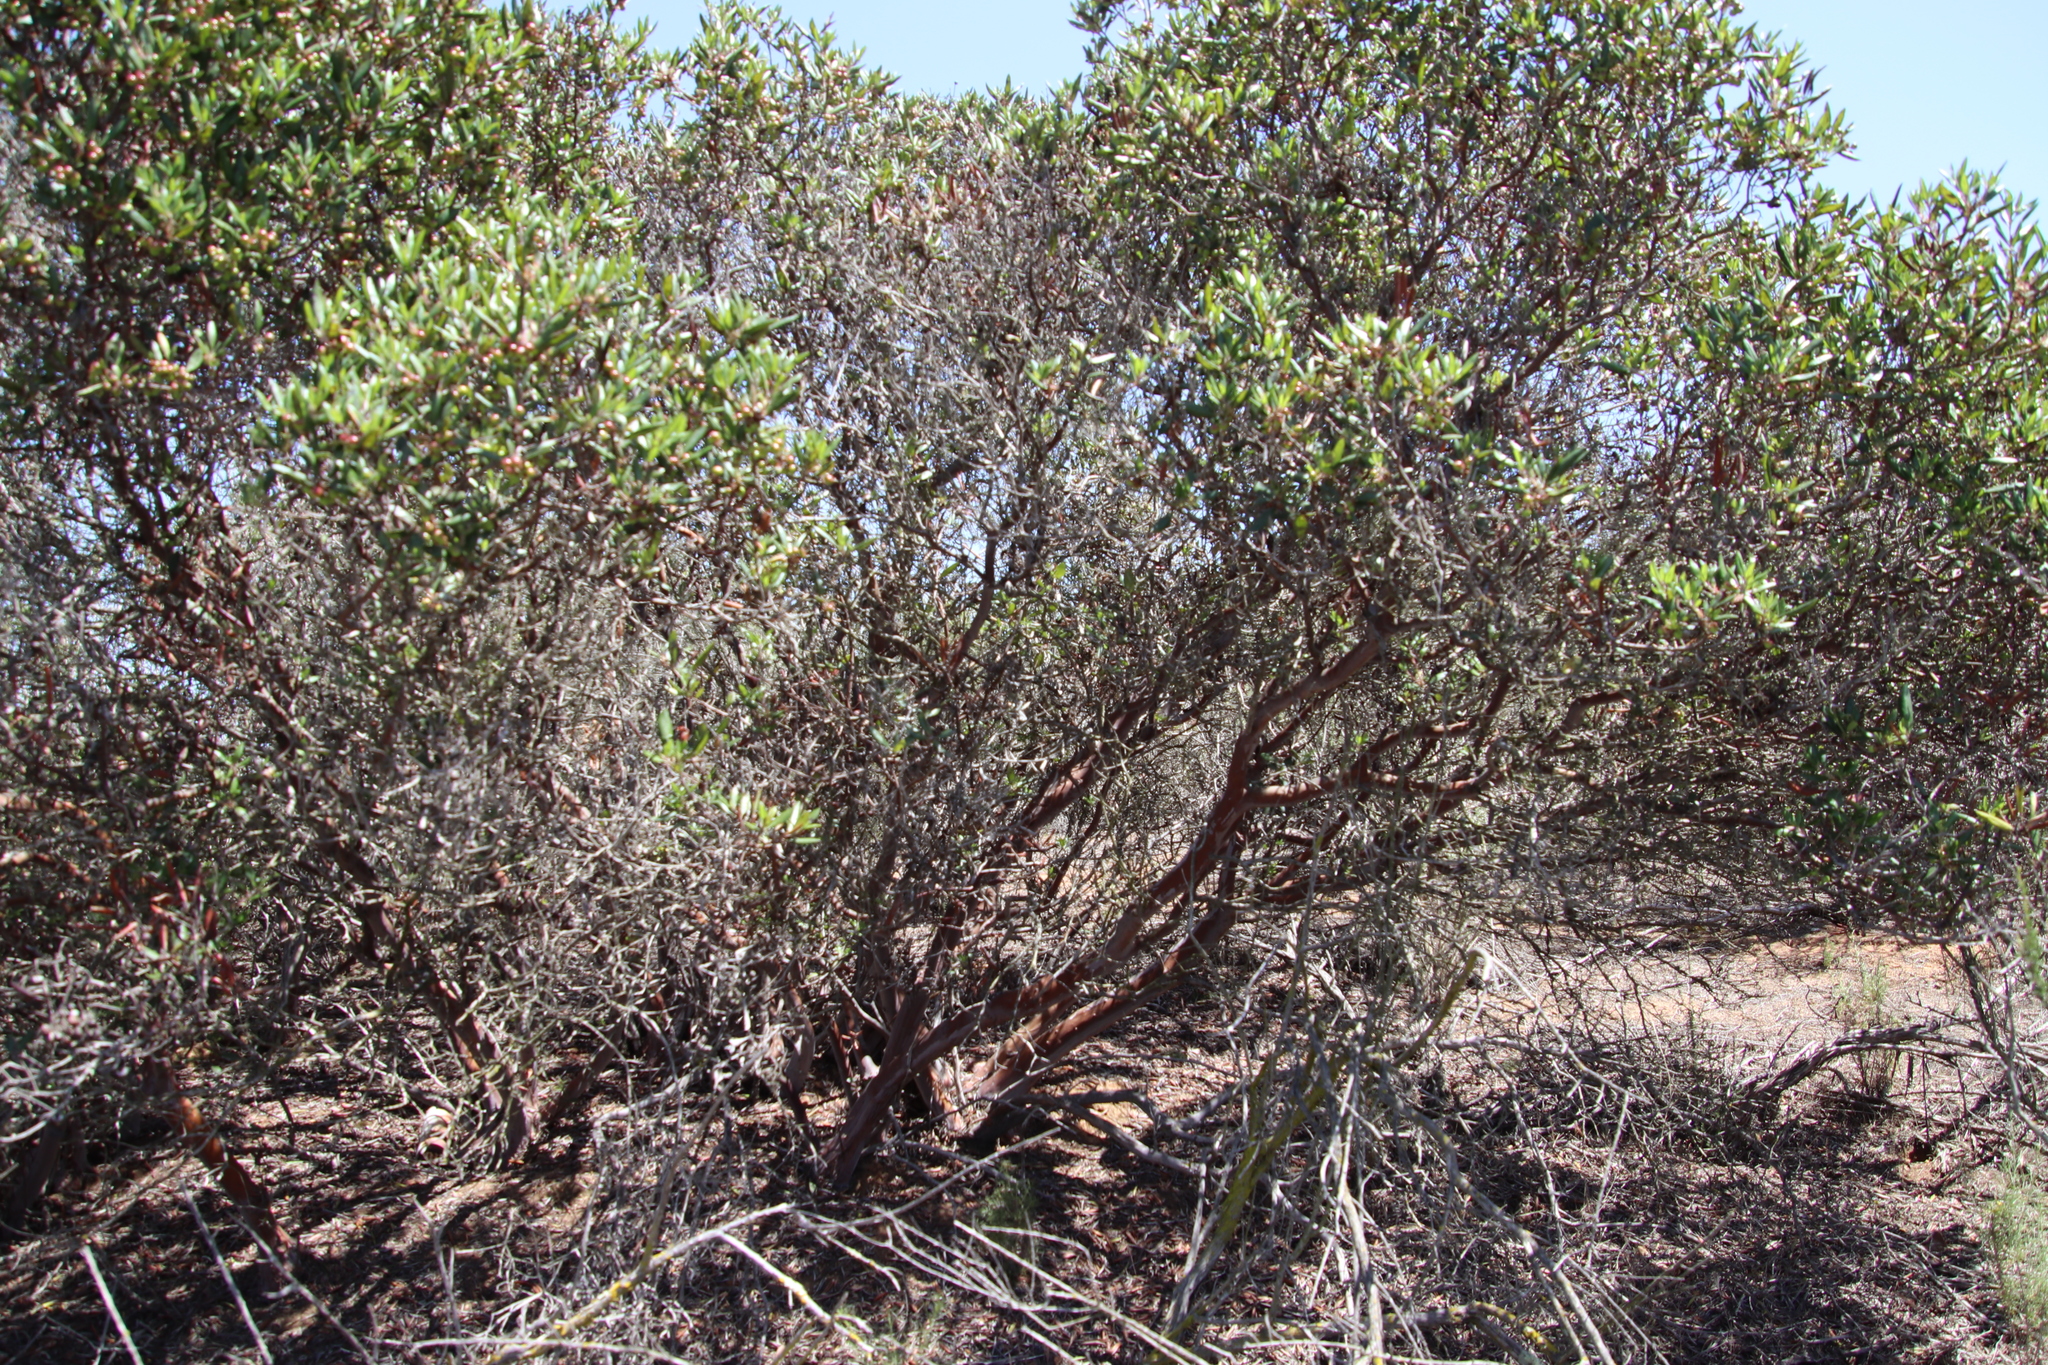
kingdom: Plantae
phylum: Tracheophyta
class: Magnoliopsida
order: Ericales
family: Ericaceae
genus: Arctostaphylos
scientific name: Arctostaphylos bicolor
